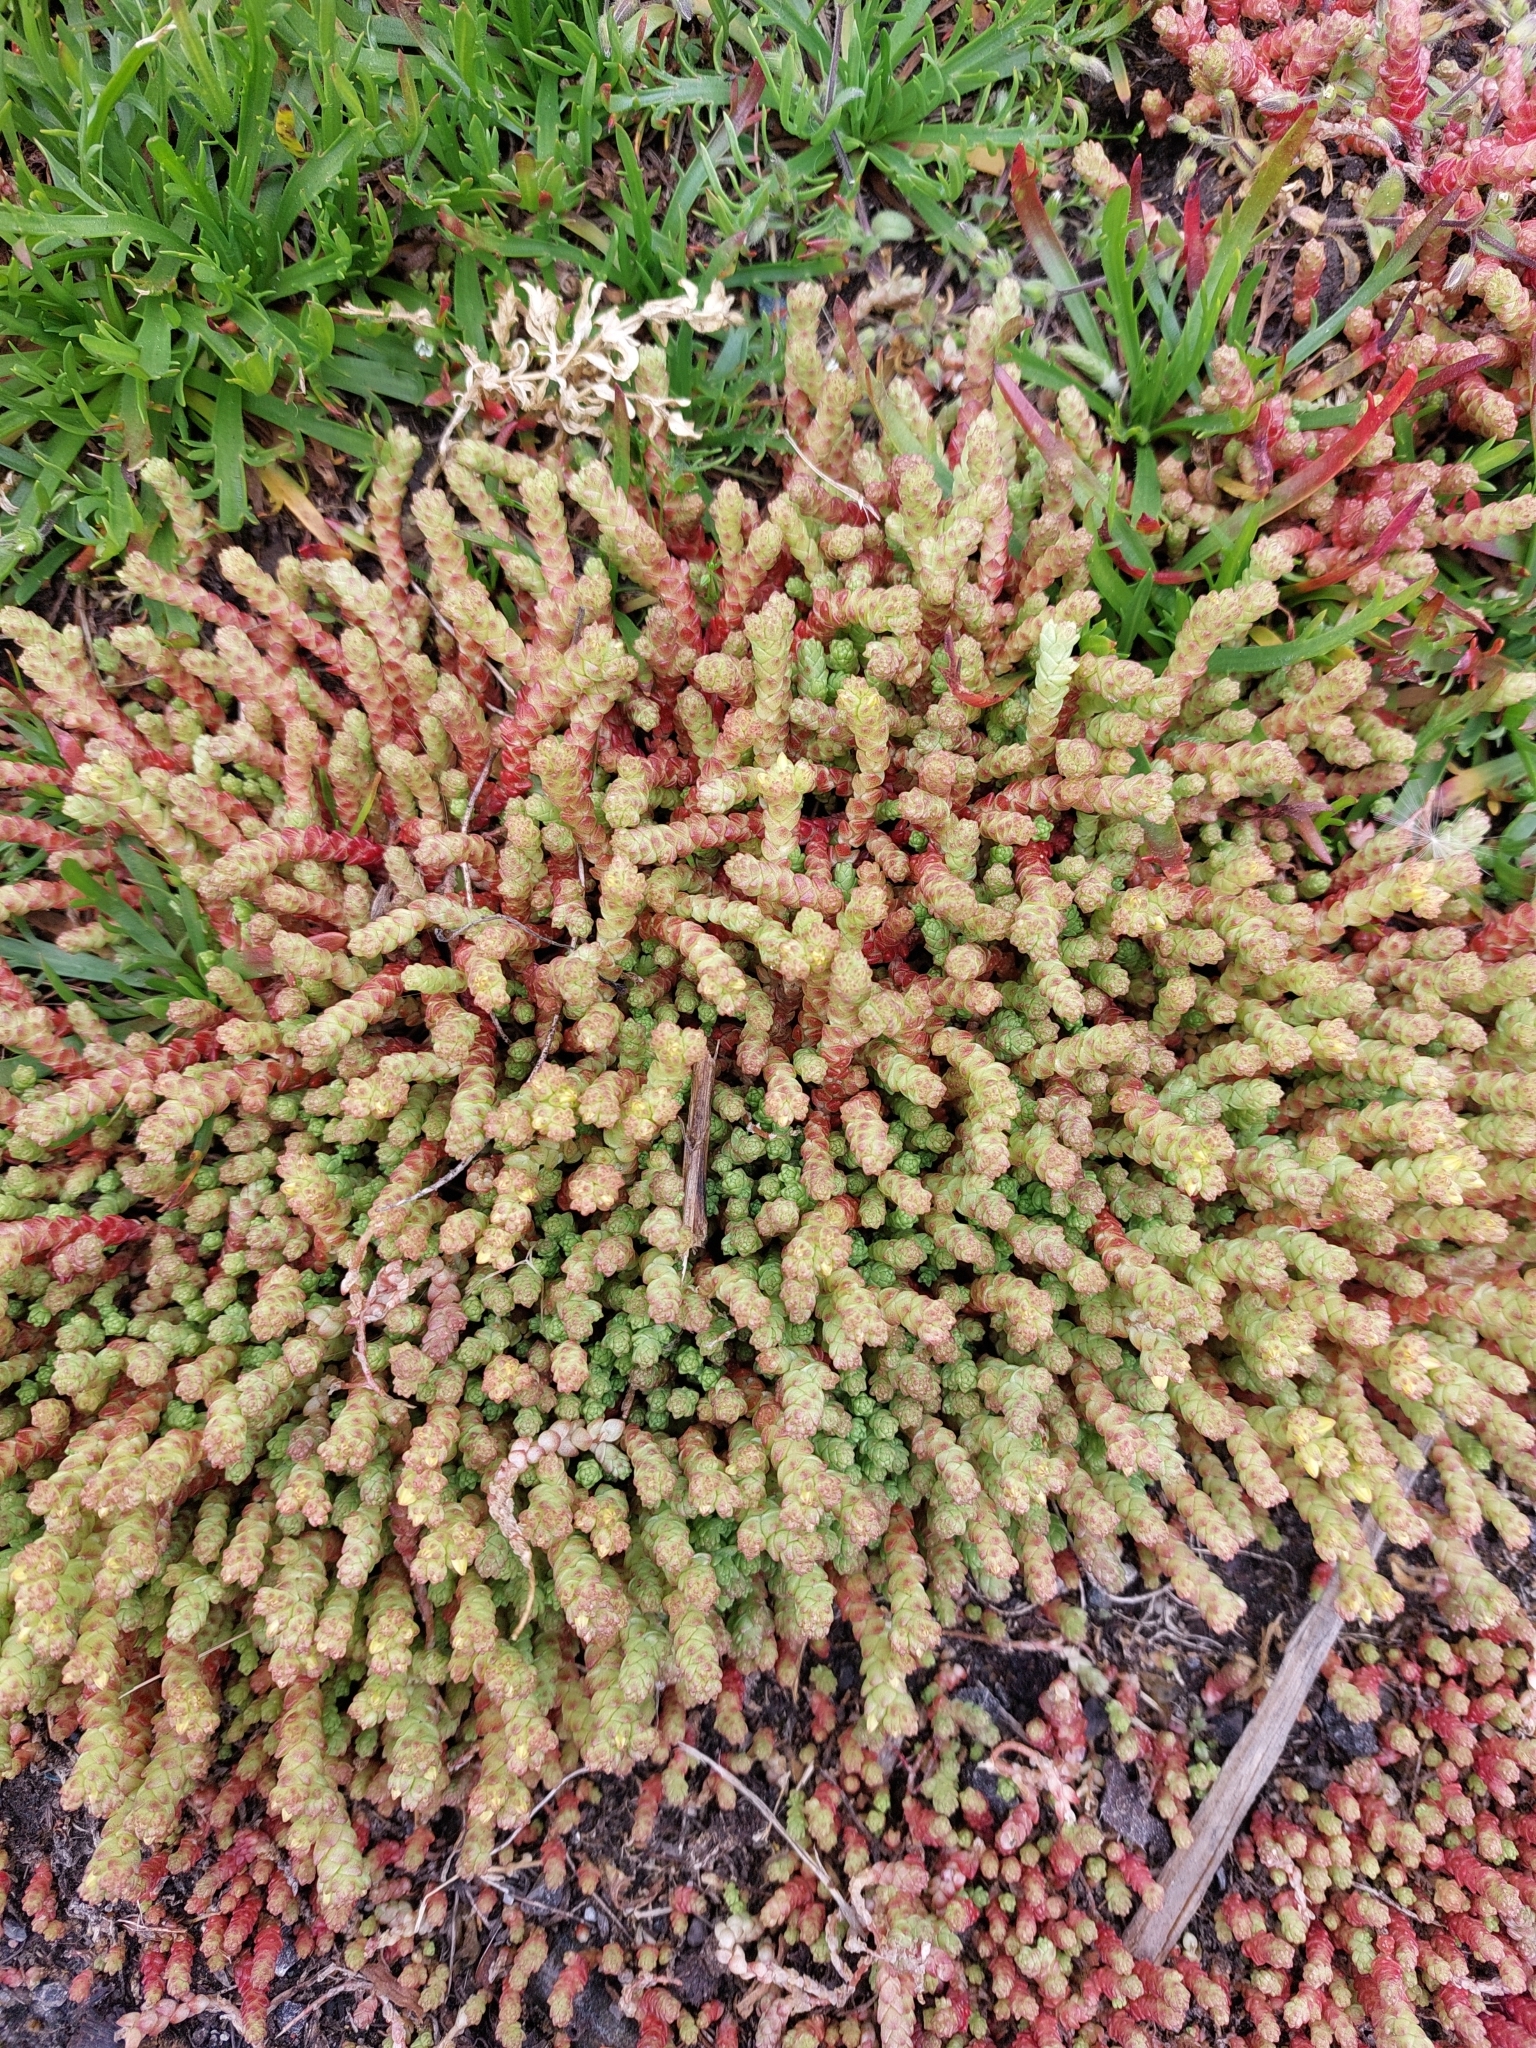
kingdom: Plantae
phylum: Tracheophyta
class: Magnoliopsida
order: Saxifragales
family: Crassulaceae
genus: Sedum
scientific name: Sedum acre
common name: Biting stonecrop
